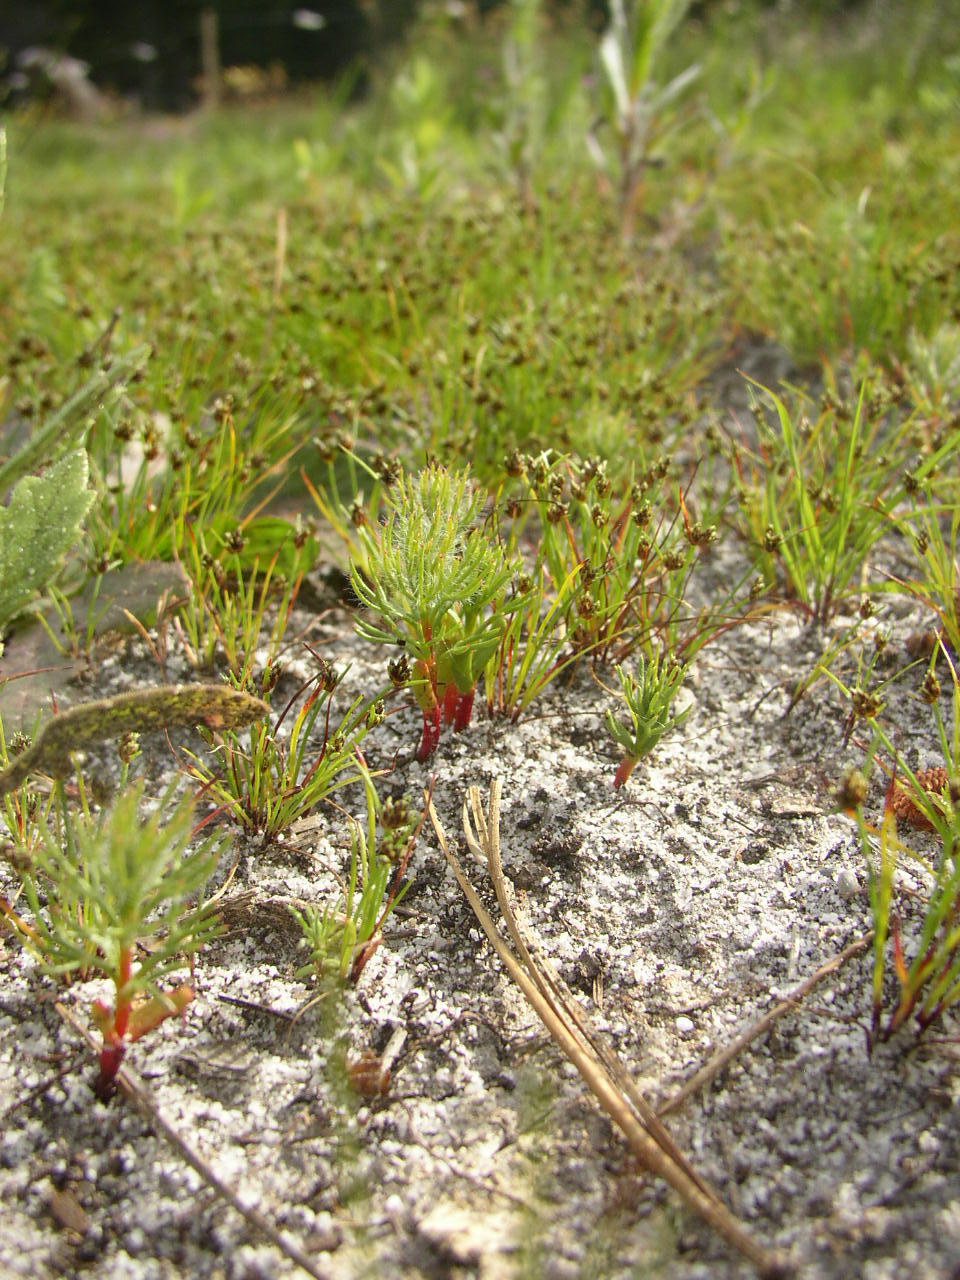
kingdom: Plantae
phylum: Tracheophyta
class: Magnoliopsida
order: Proteales
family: Proteaceae
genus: Serruria
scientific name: Serruria glomerata
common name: Cluster spiderhead
